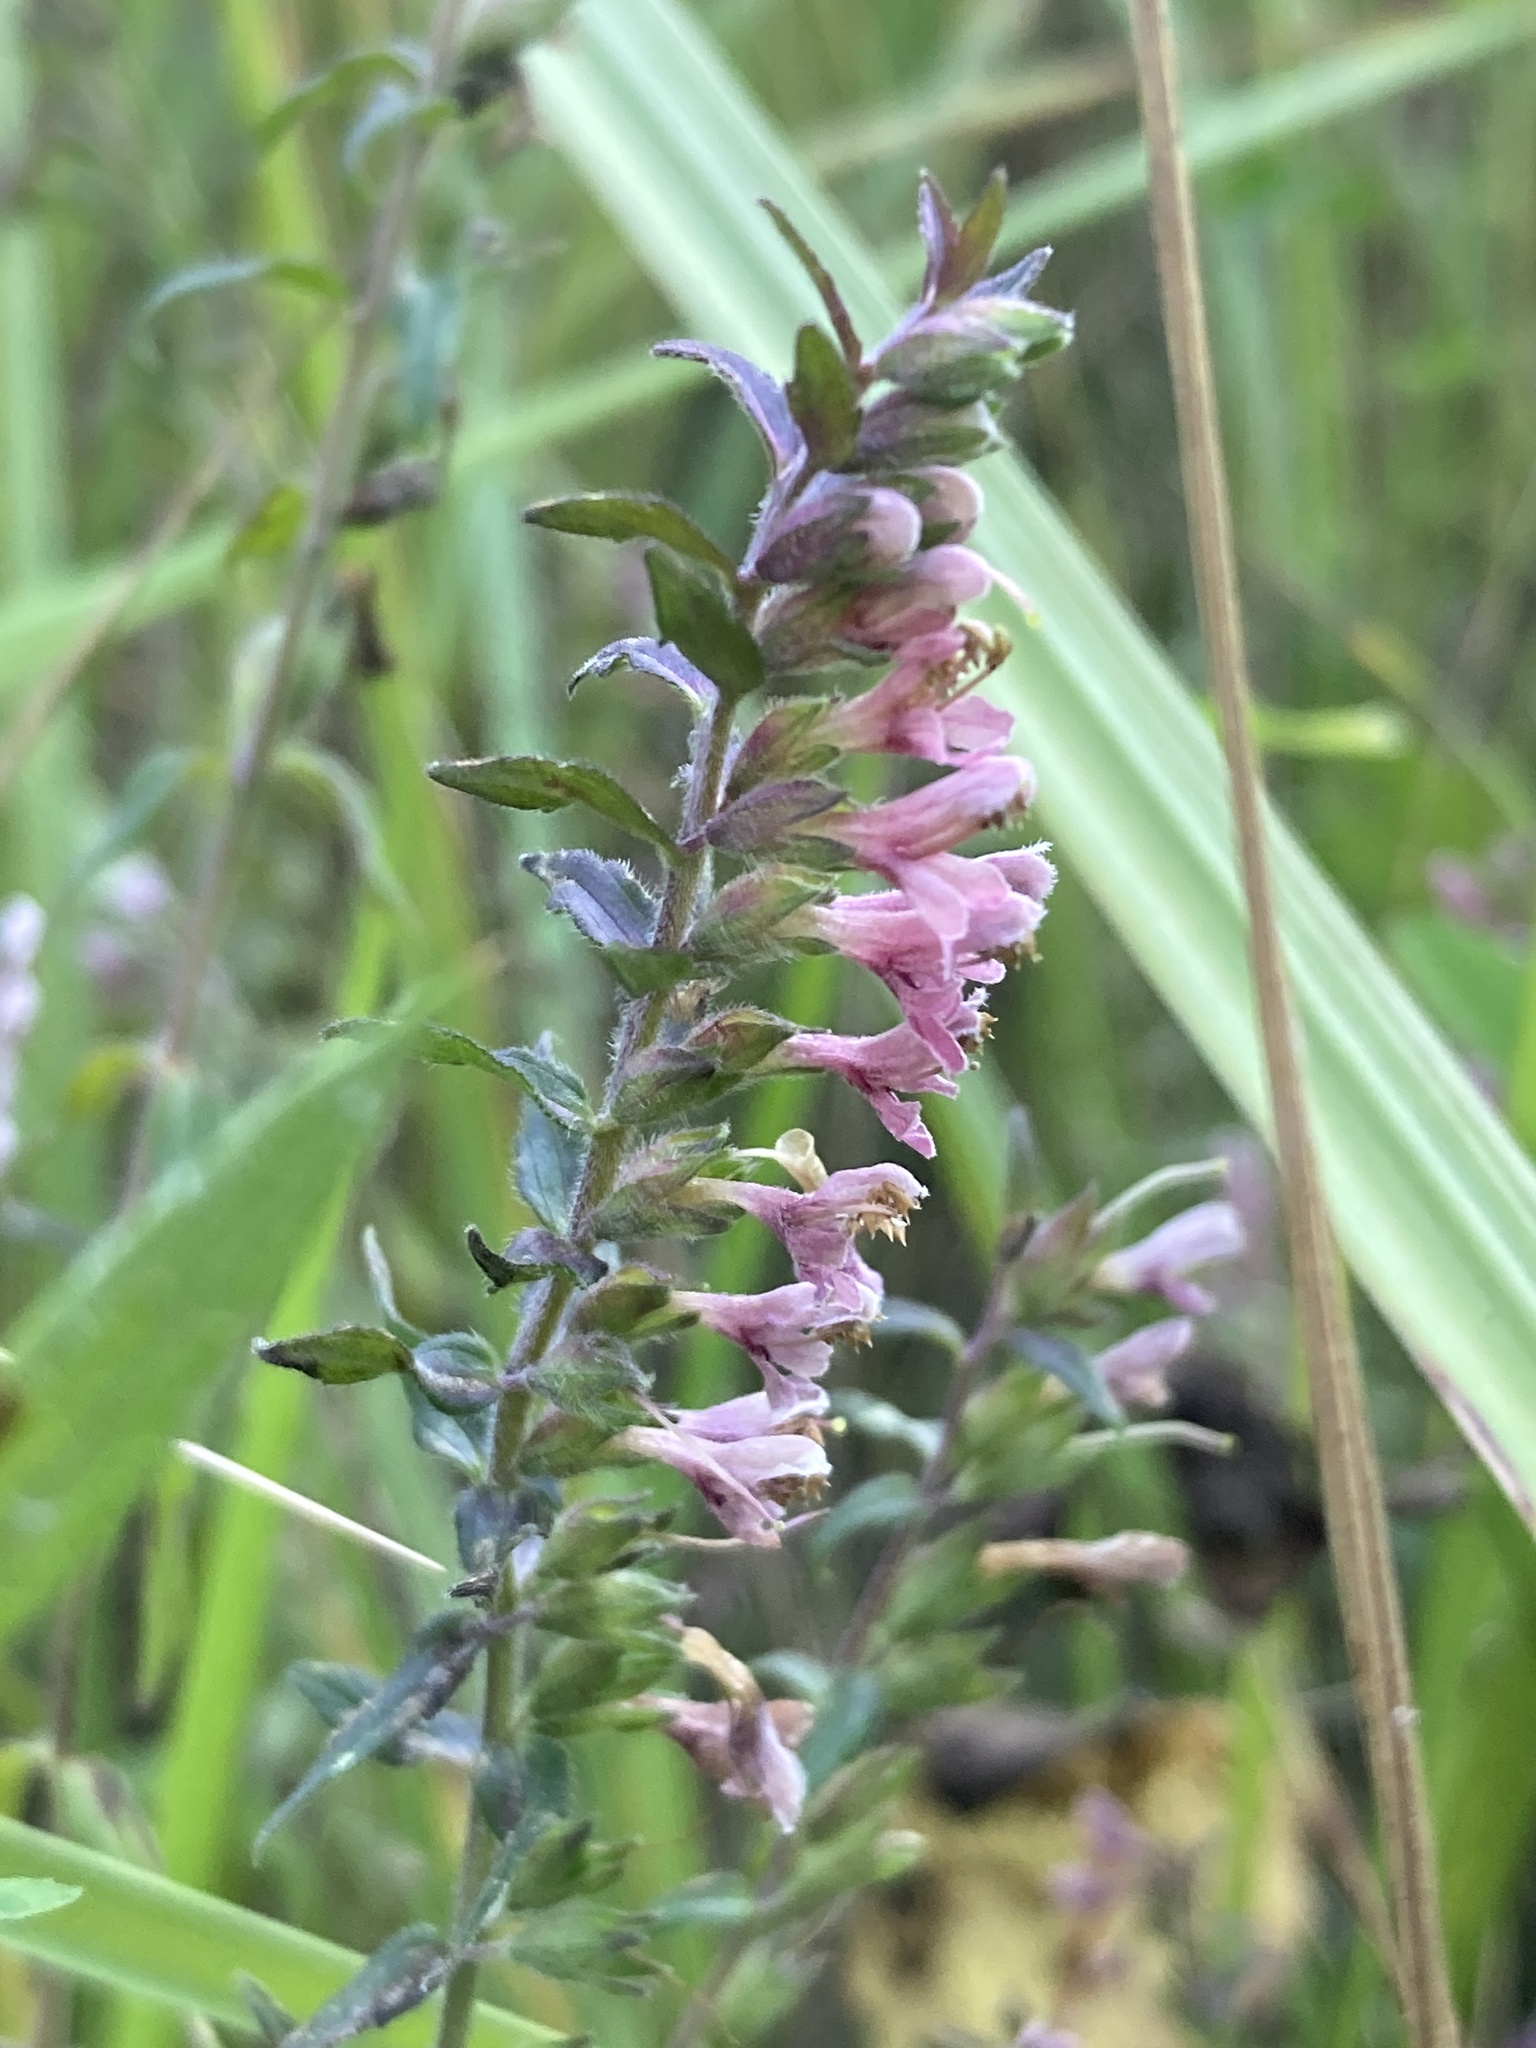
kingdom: Plantae
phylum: Tracheophyta
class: Magnoliopsida
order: Lamiales
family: Orobanchaceae
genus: Odontites
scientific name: Odontites vulgaris
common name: Broomrape
